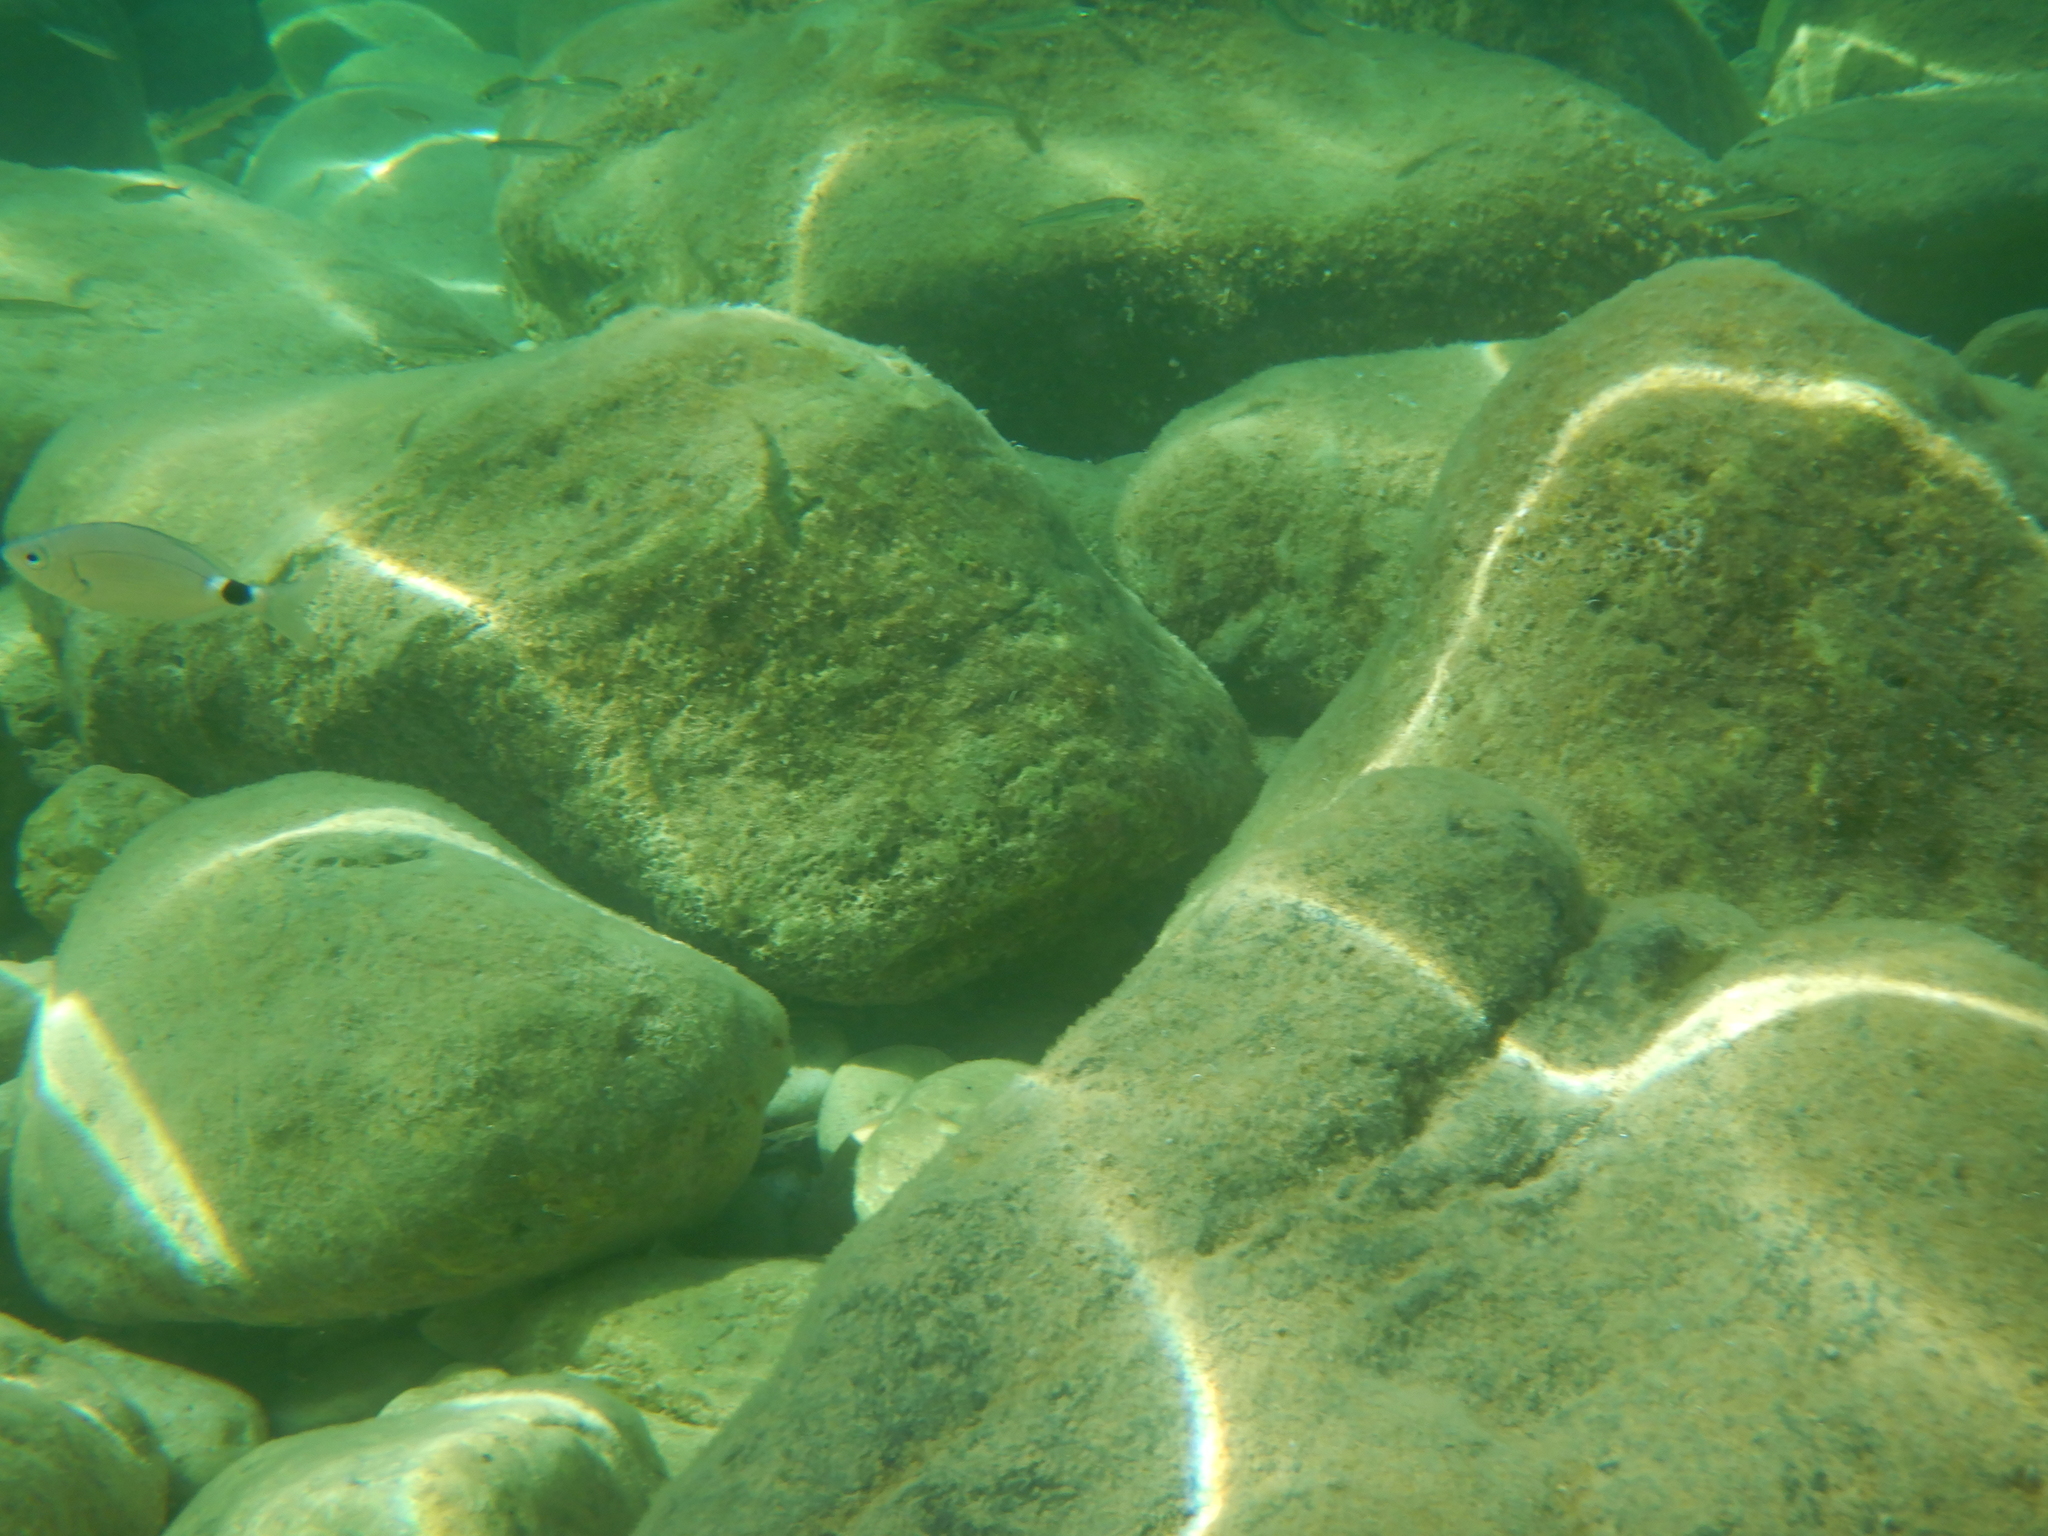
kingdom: Animalia
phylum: Chordata
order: Perciformes
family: Sparidae
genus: Oblada
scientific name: Oblada melanura
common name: Saddled seabream
